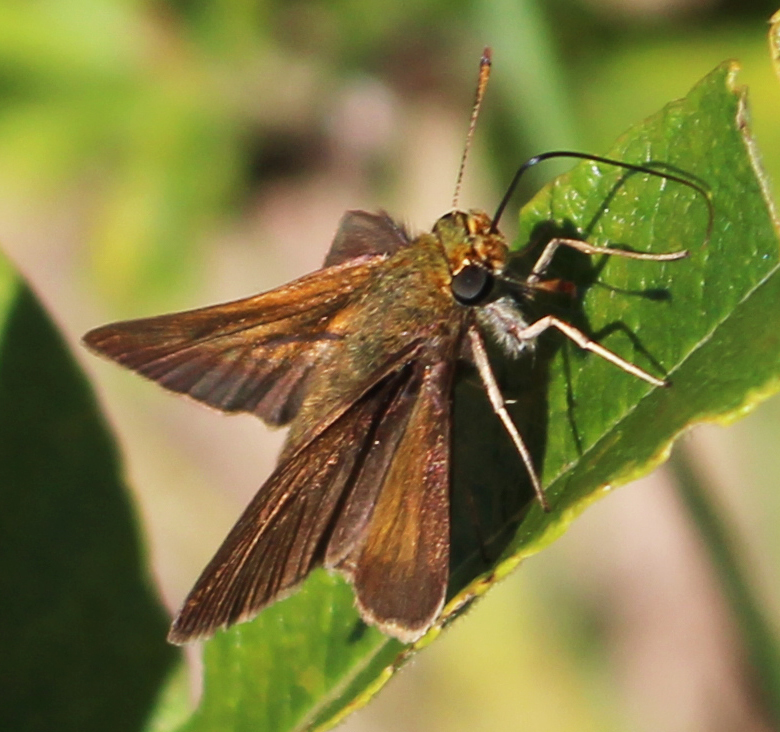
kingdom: Animalia
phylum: Arthropoda
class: Insecta
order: Lepidoptera
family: Hesperiidae
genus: Polites
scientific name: Polites egeremet
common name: Northern broken-dash
